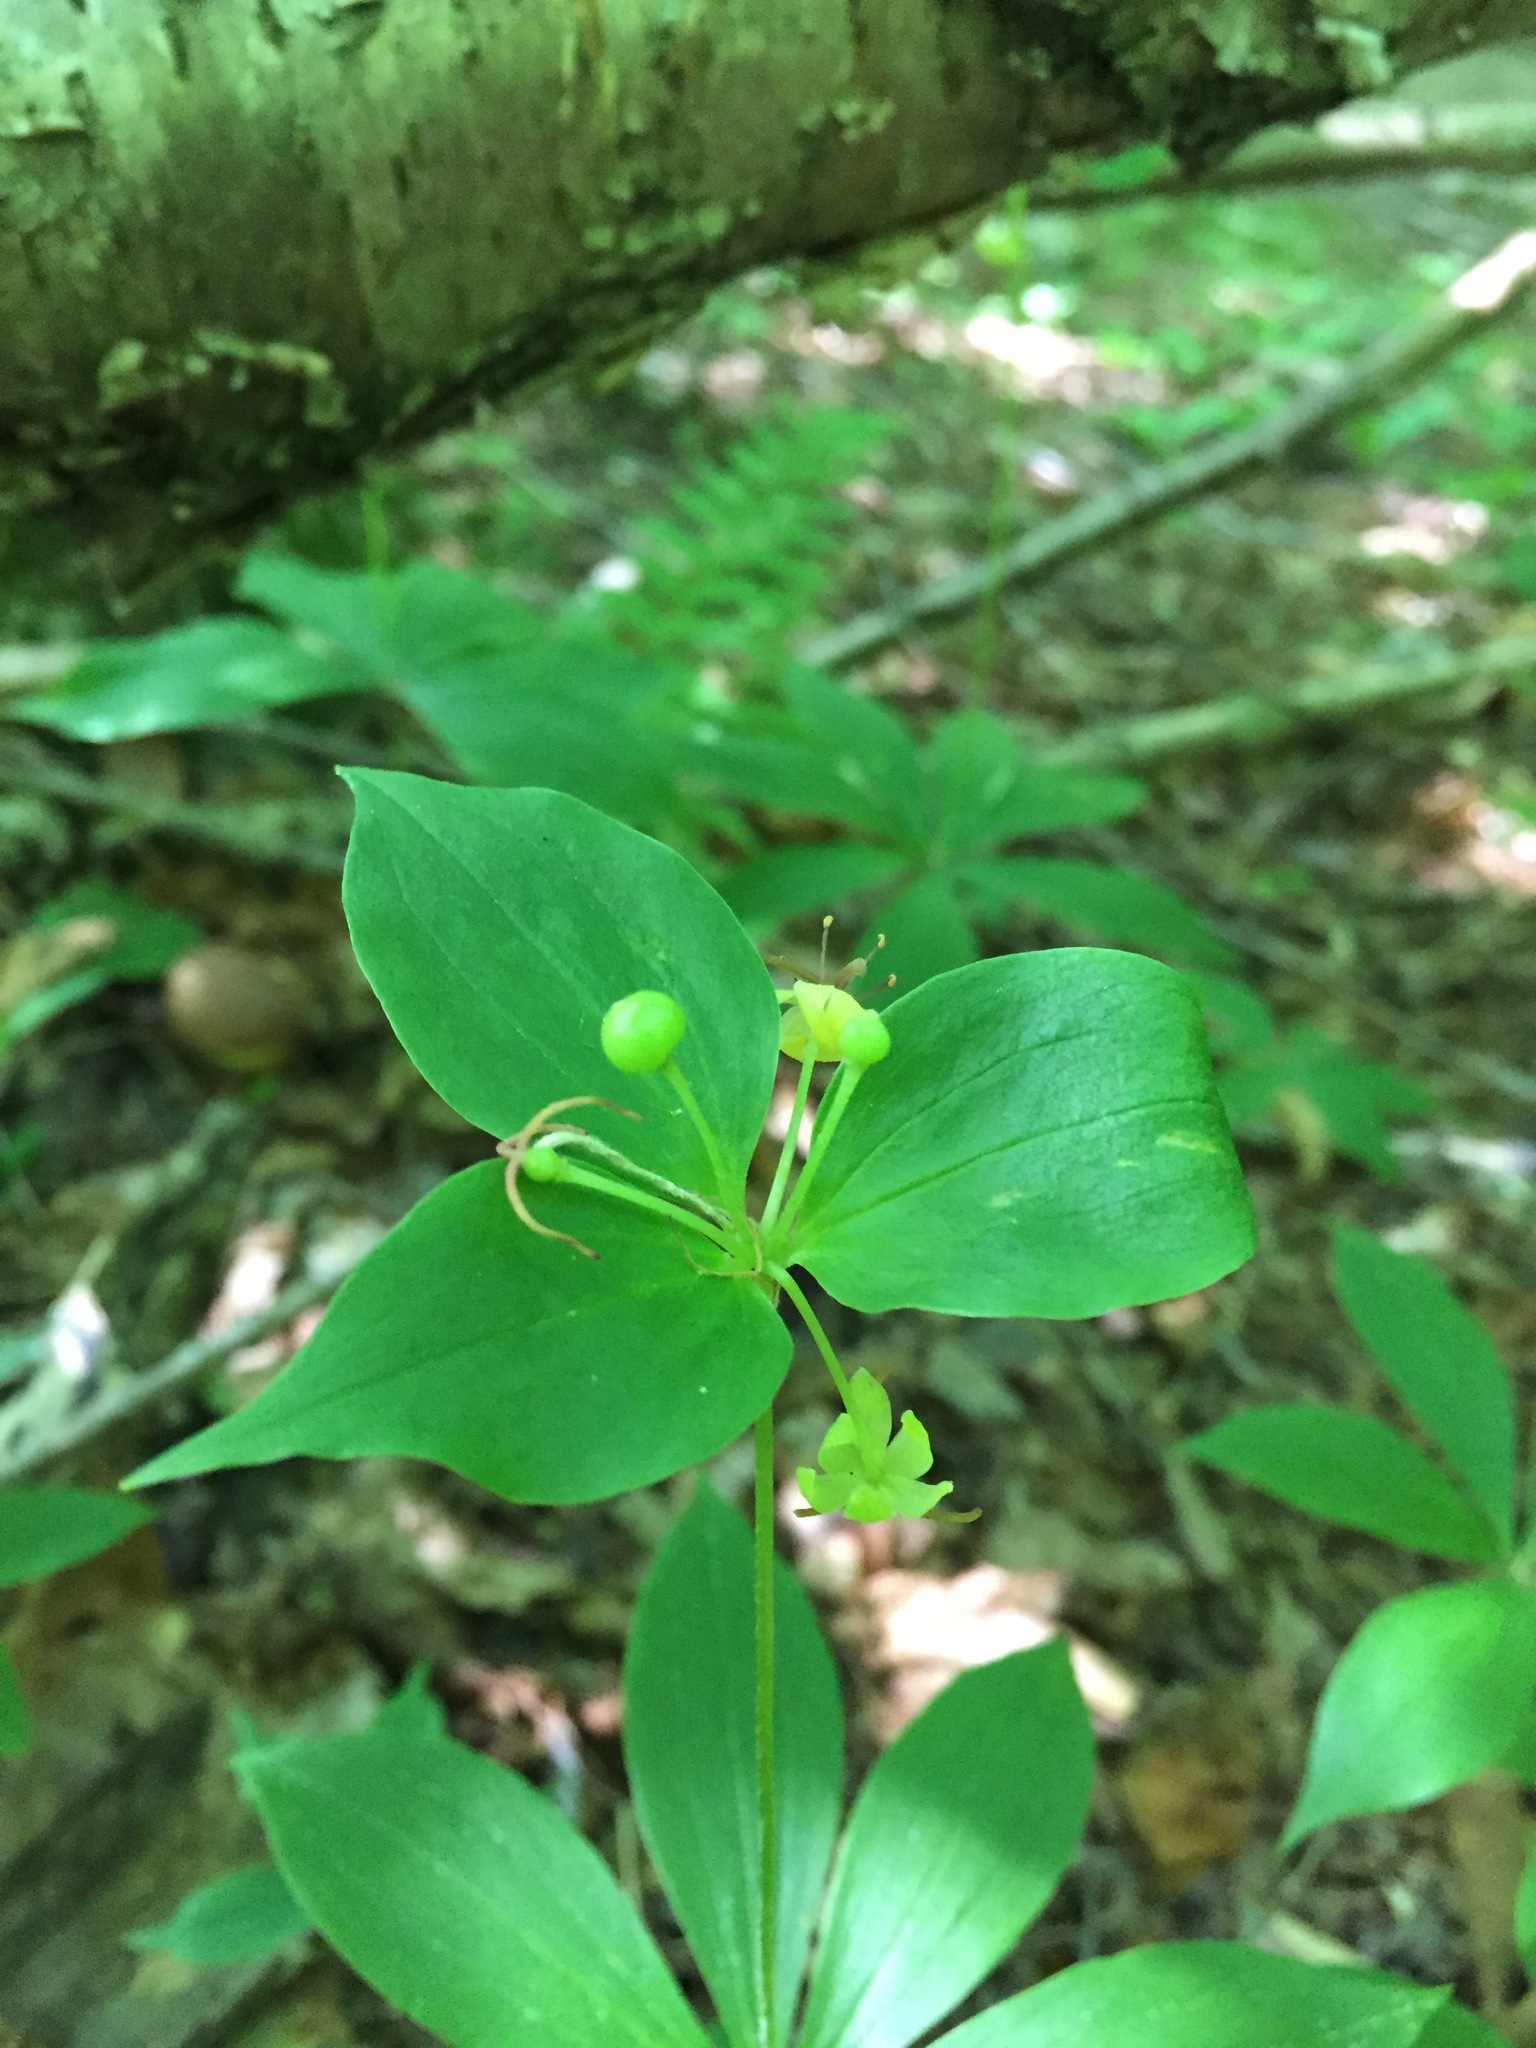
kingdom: Plantae
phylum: Tracheophyta
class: Liliopsida
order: Liliales
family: Liliaceae
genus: Medeola
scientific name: Medeola virginiana
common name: Indian cucumber-root
